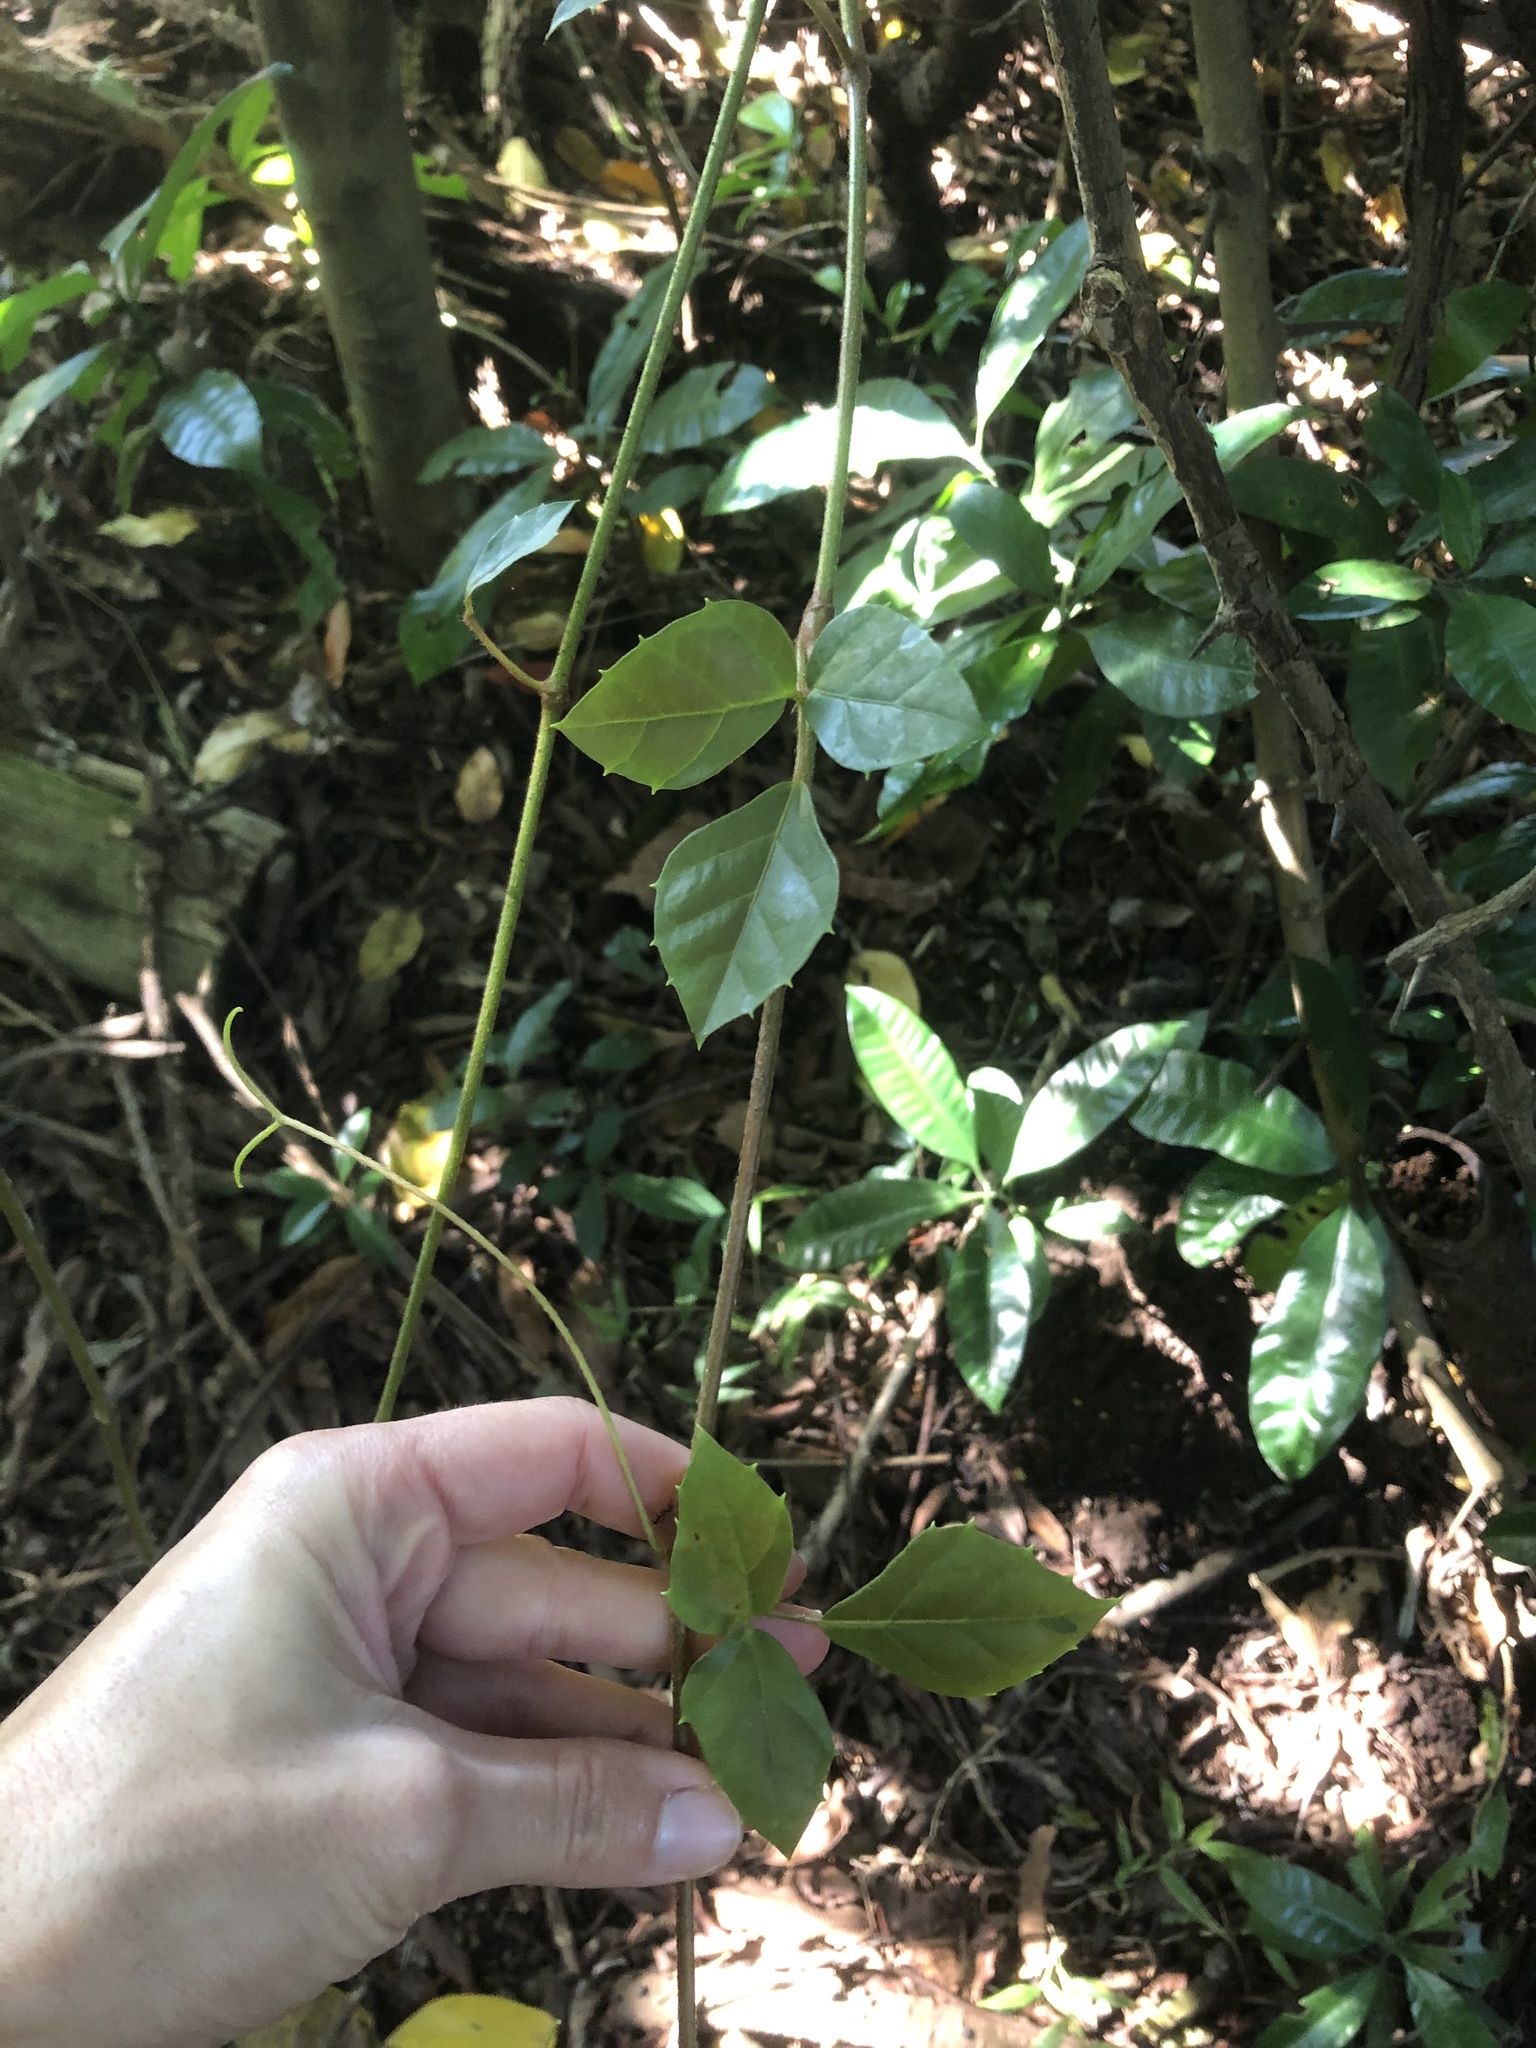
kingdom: Plantae
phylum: Tracheophyta
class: Magnoliopsida
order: Vitales
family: Vitaceae
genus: Rhoicissus
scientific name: Rhoicissus rhomboidea
